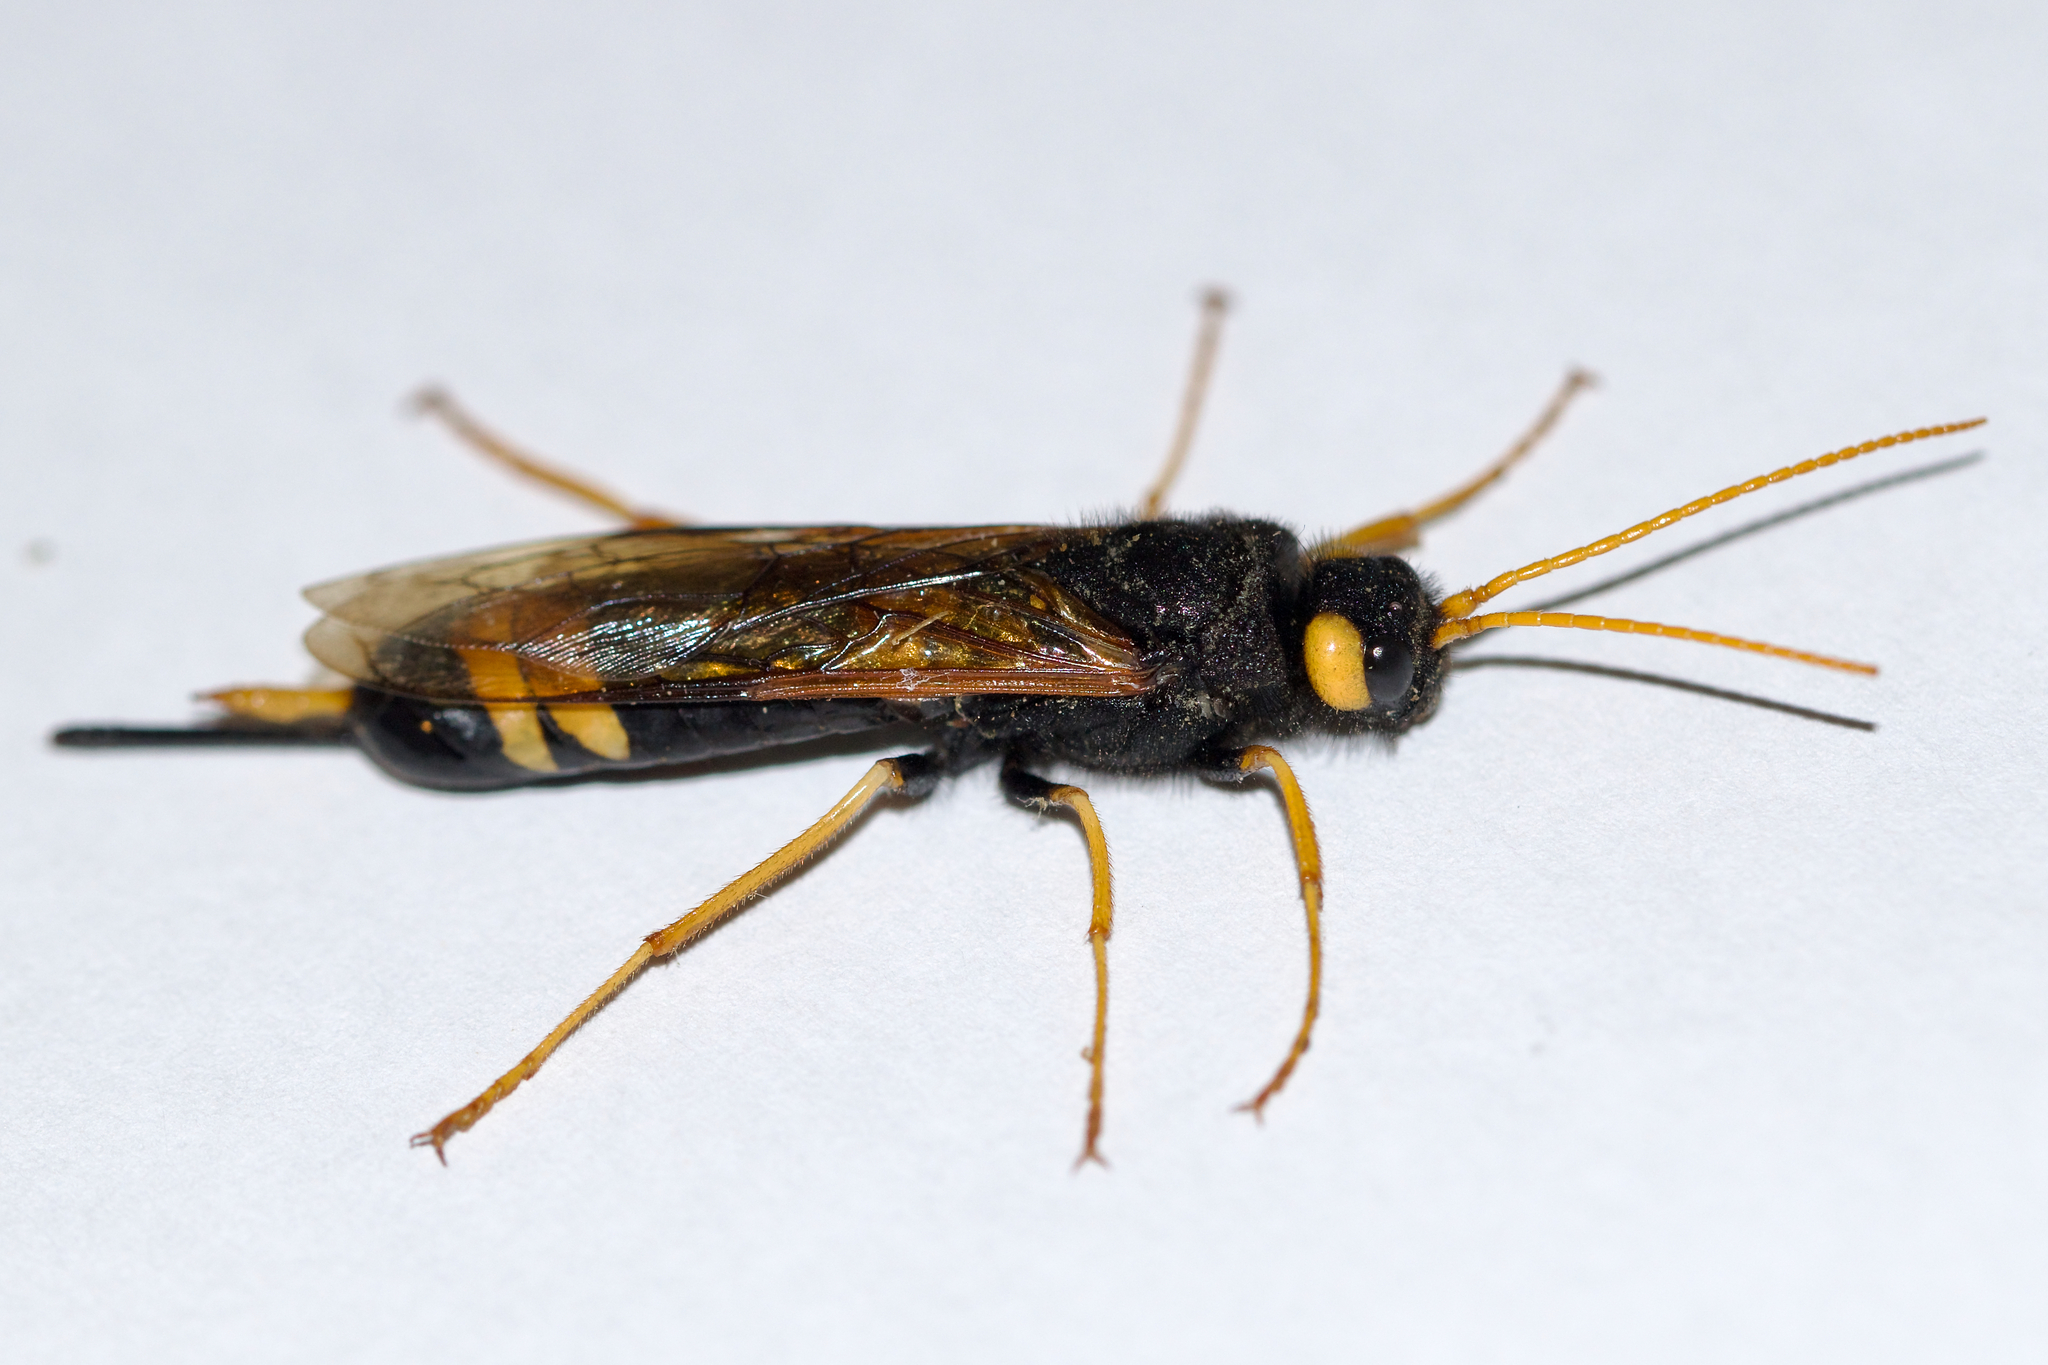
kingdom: Animalia
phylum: Arthropoda
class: Insecta
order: Hymenoptera
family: Siricidae
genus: Urocerus
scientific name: Urocerus flavicornis
